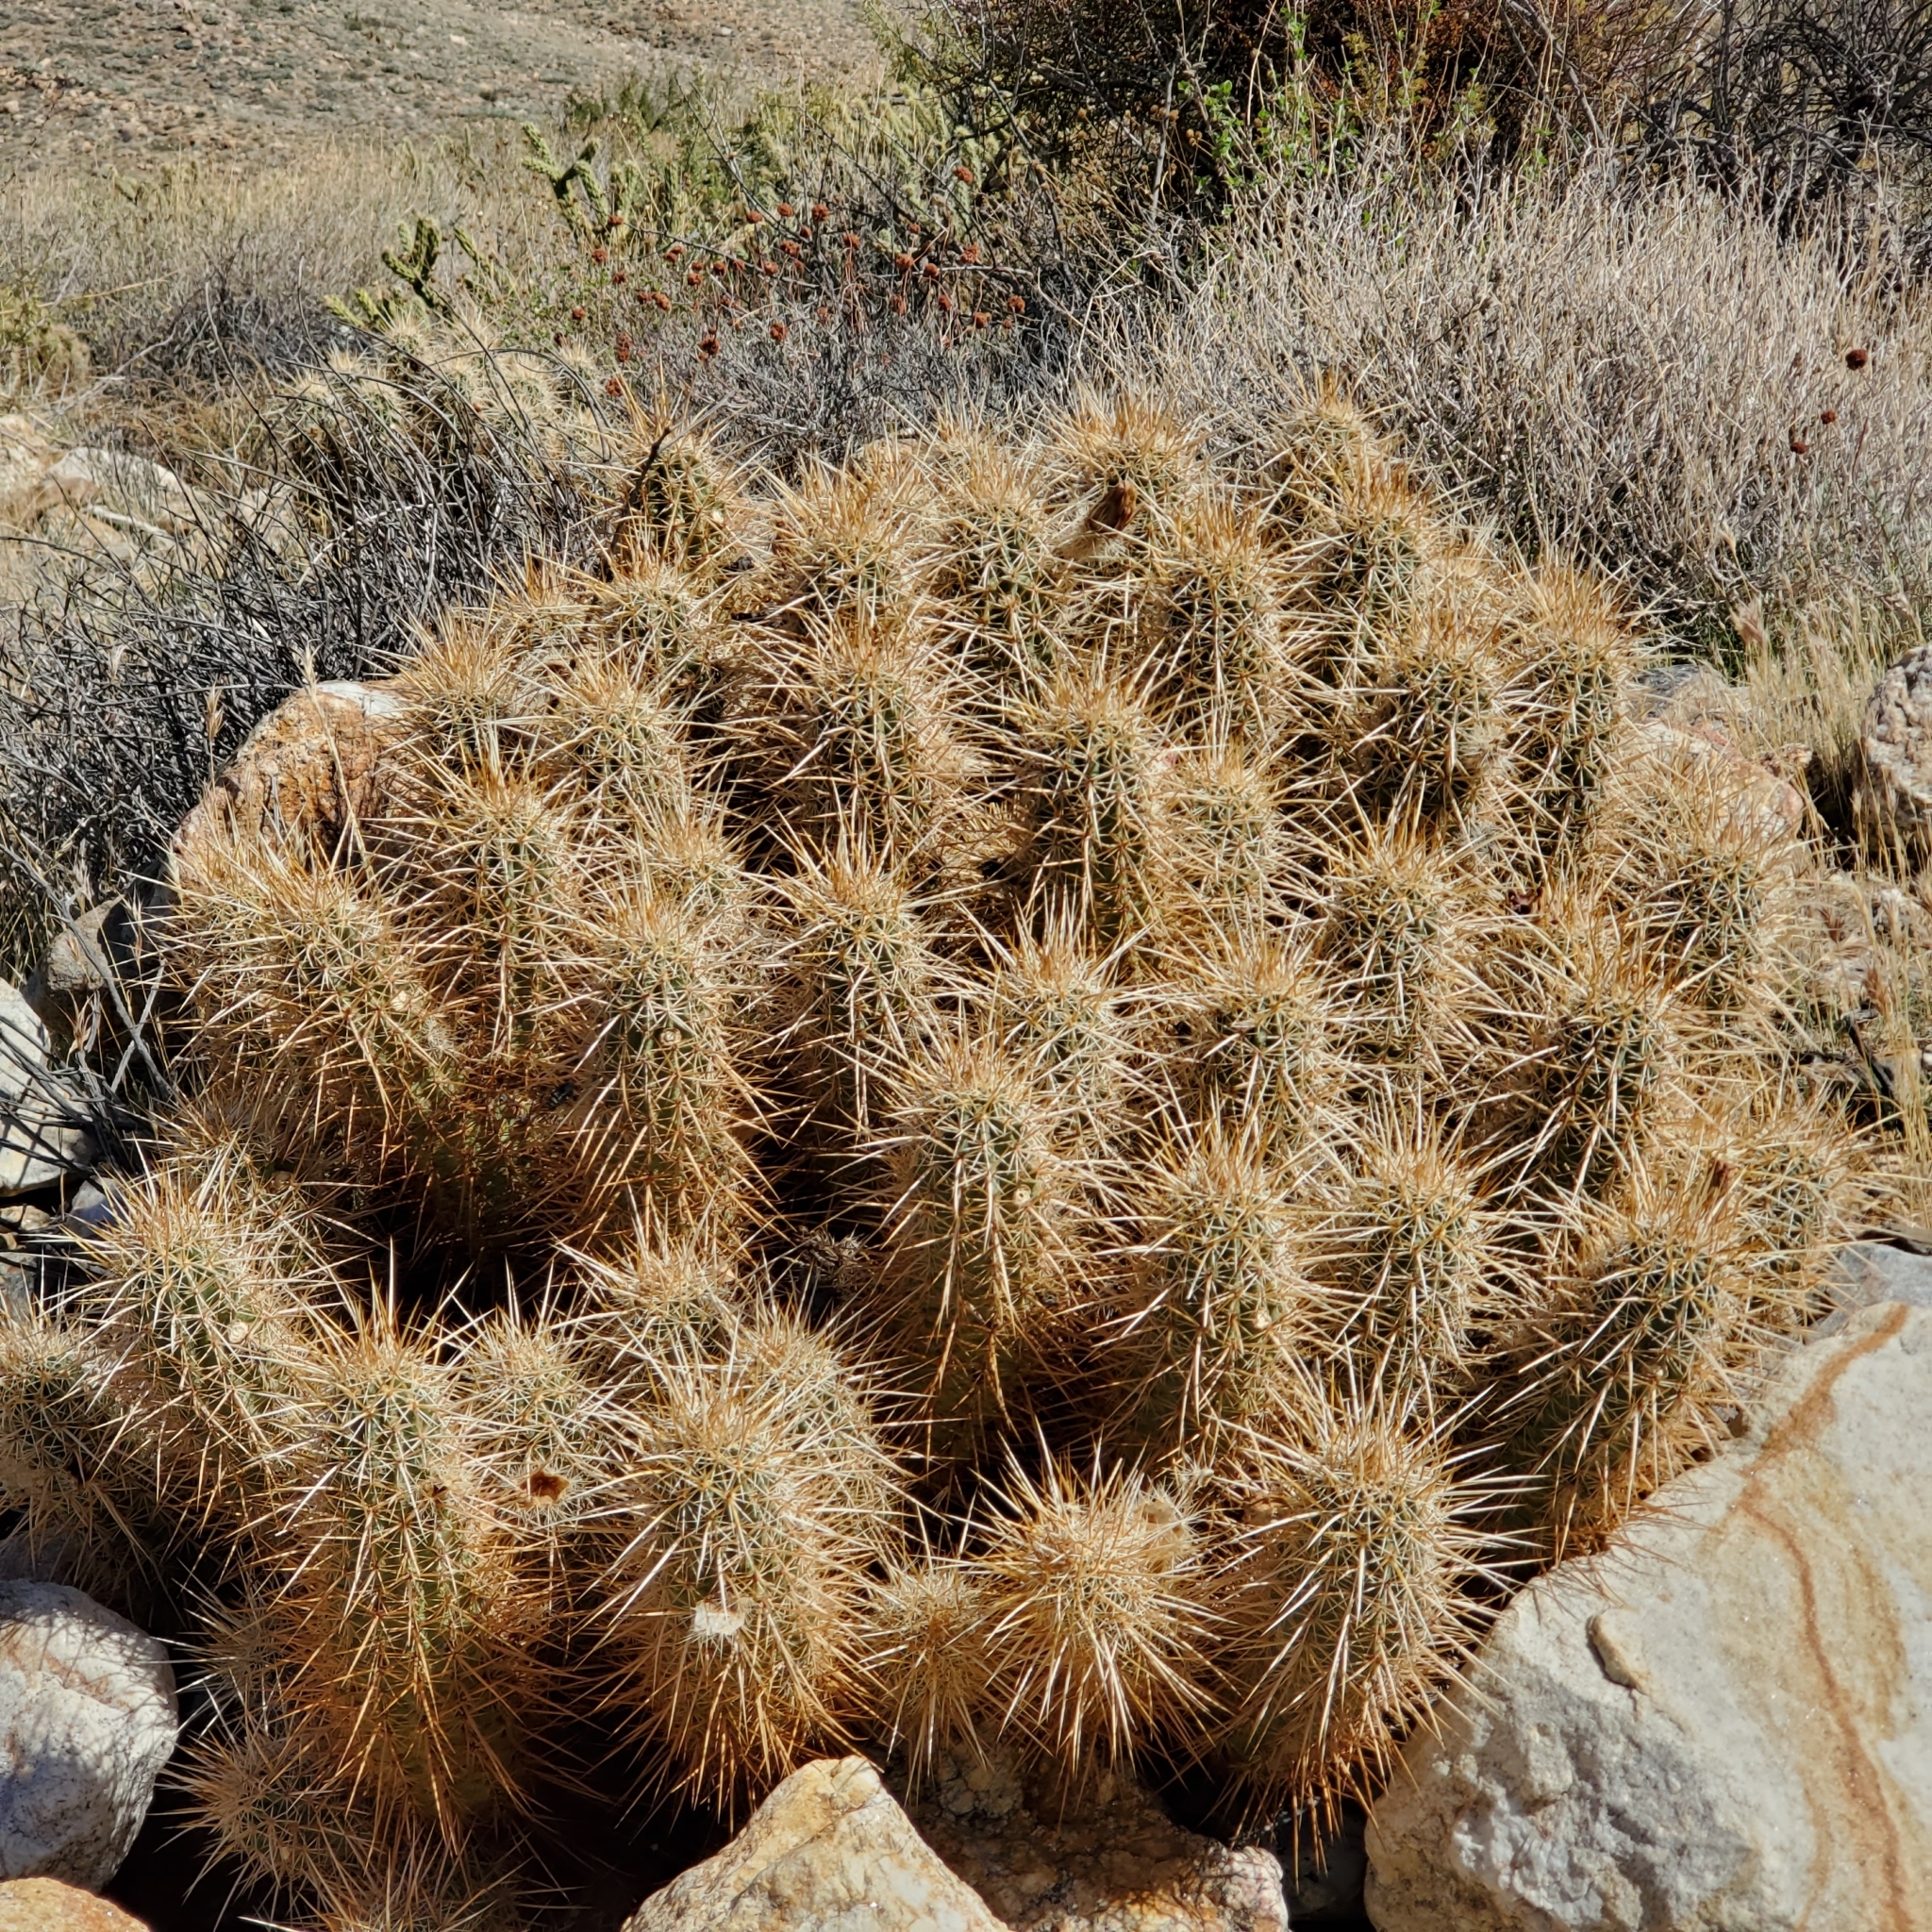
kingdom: Plantae
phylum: Tracheophyta
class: Magnoliopsida
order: Caryophyllales
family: Cactaceae
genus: Echinocereus
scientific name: Echinocereus engelmannii
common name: Engelmann's hedgehog cactus
